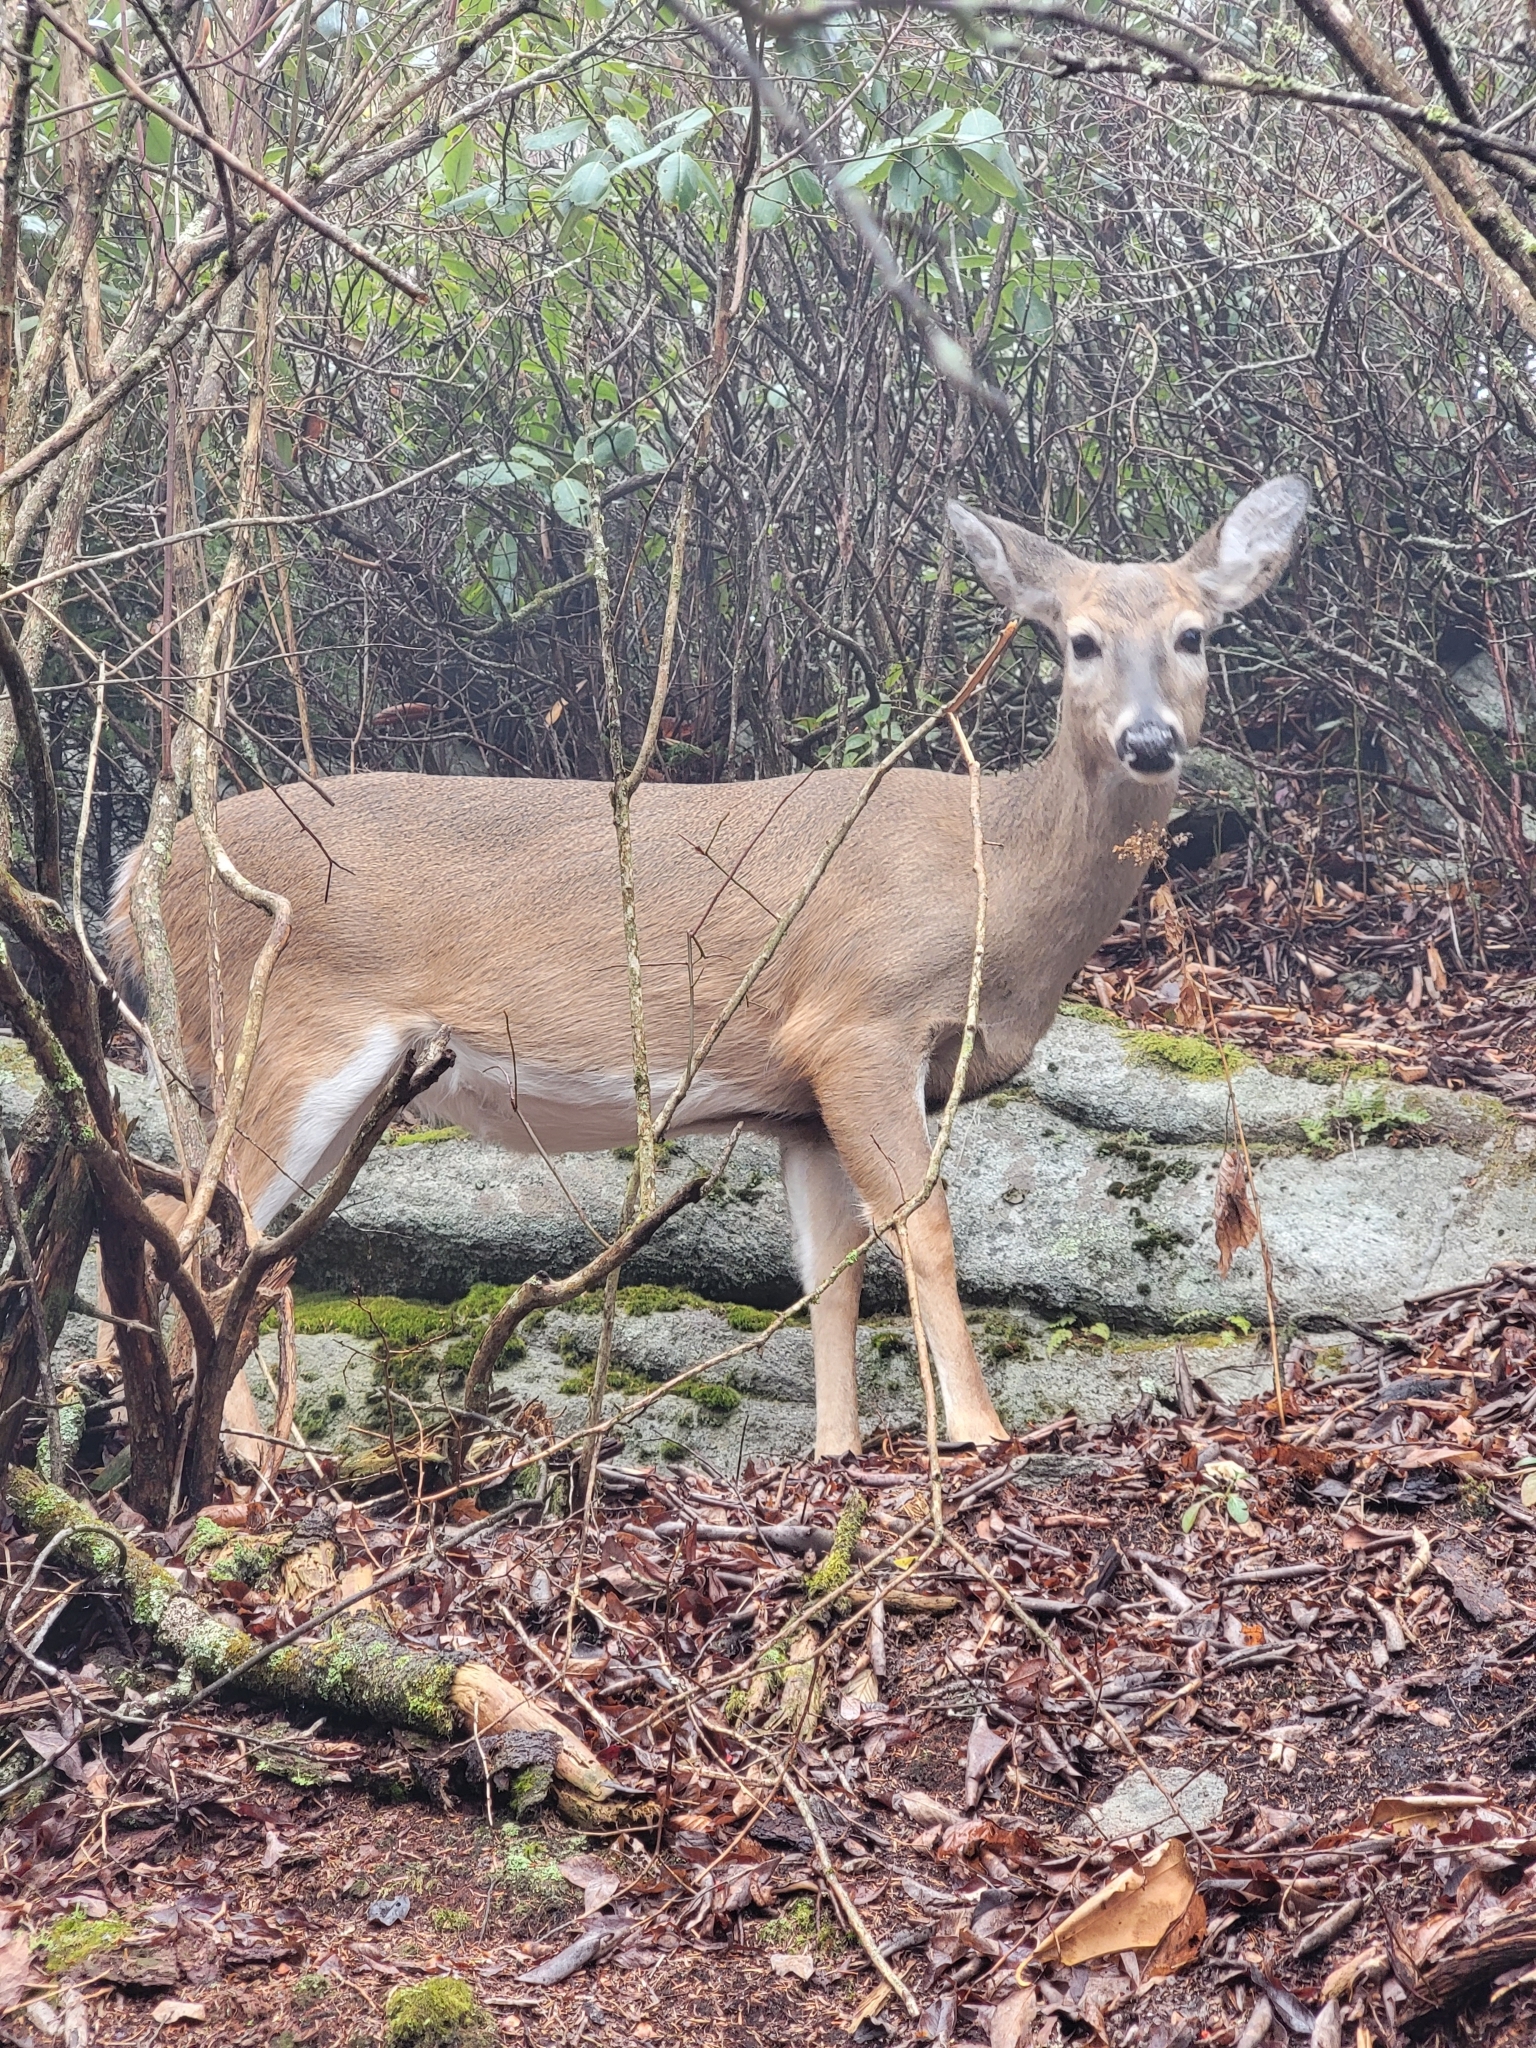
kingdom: Animalia
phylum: Chordata
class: Mammalia
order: Artiodactyla
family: Cervidae
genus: Odocoileus
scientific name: Odocoileus virginianus
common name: White-tailed deer
